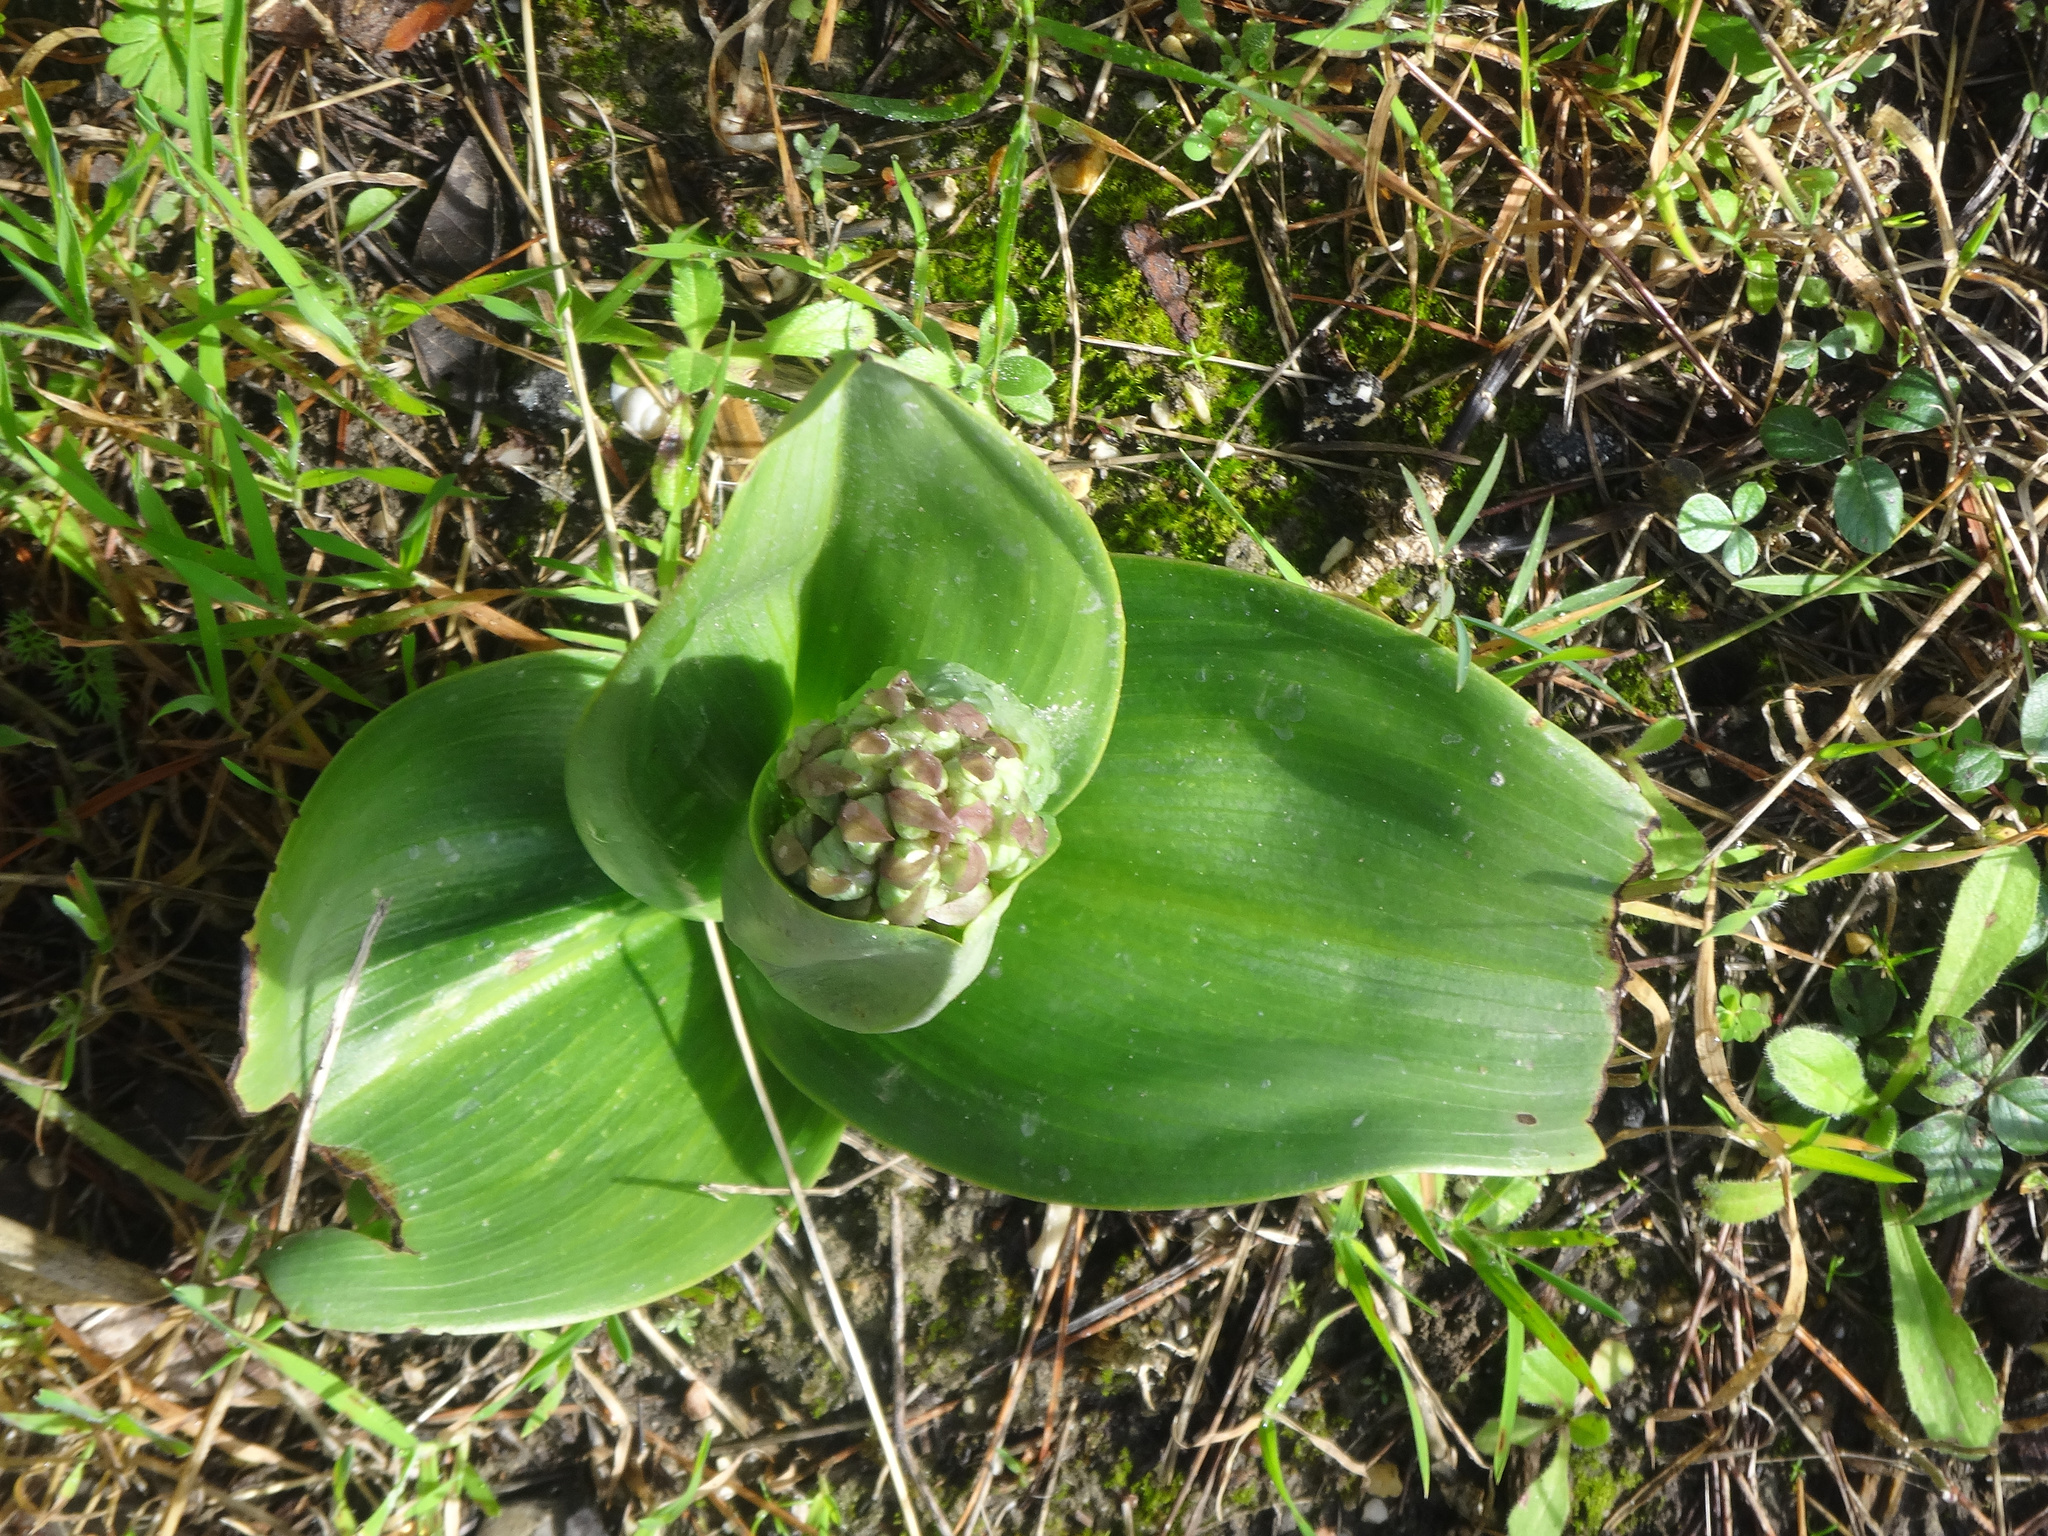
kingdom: Plantae
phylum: Tracheophyta
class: Liliopsida
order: Asparagales
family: Orchidaceae
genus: Himantoglossum
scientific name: Himantoglossum robertianum
